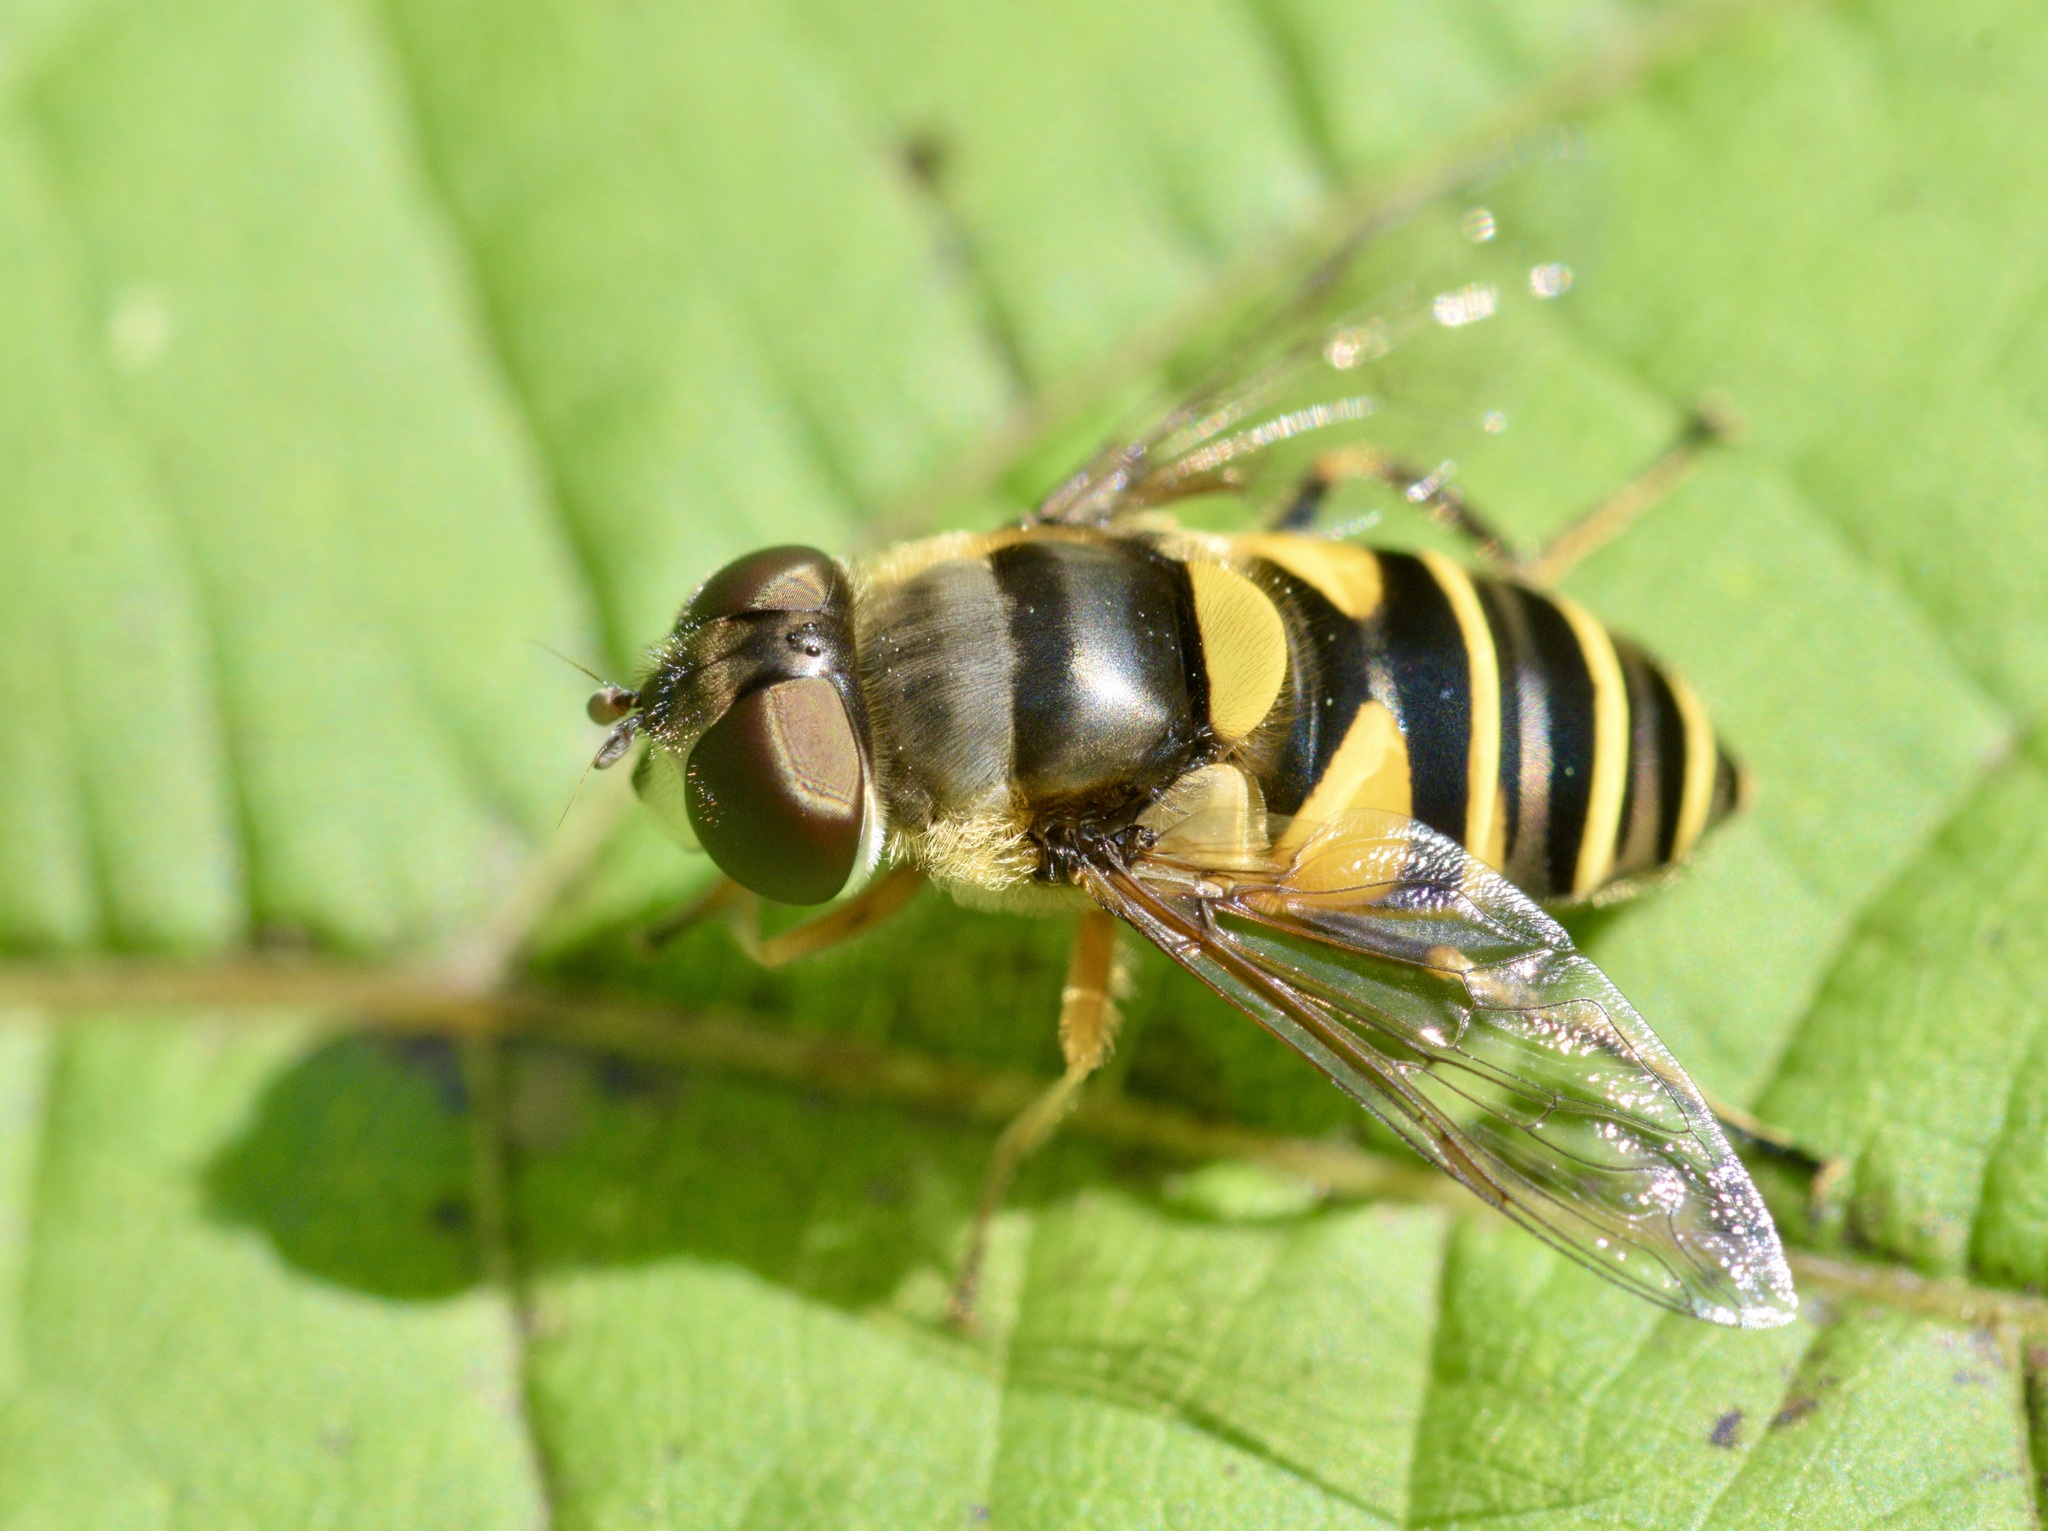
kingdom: Animalia
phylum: Arthropoda
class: Insecta
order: Diptera
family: Syrphidae
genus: Eristalis
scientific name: Eristalis transversa
